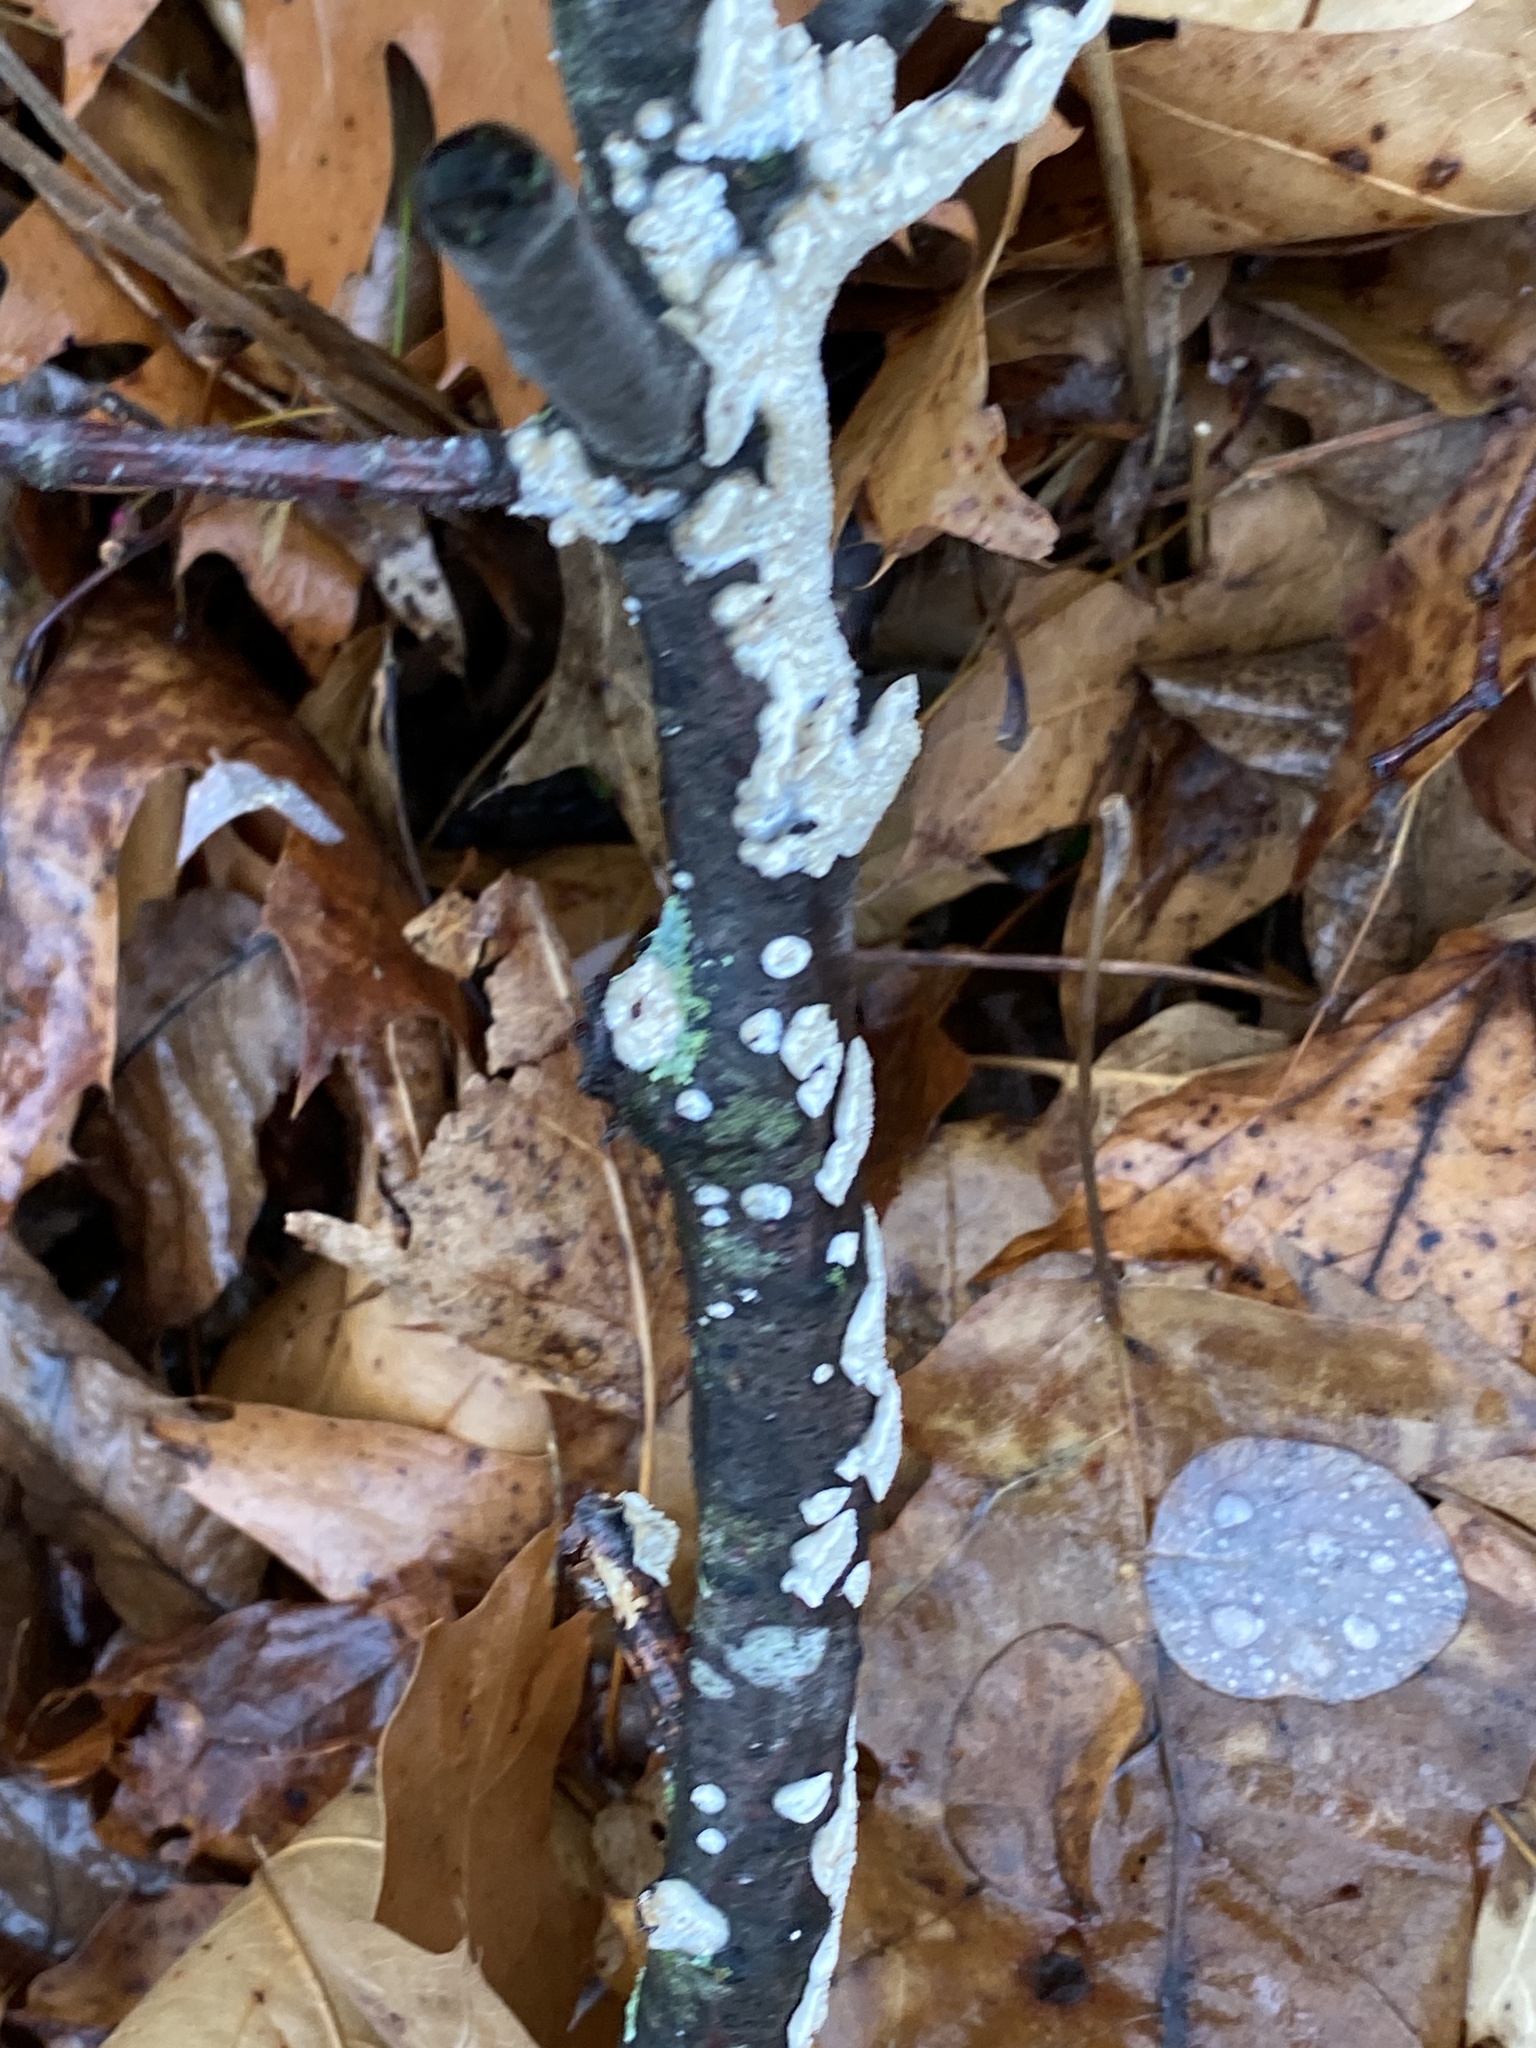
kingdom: Fungi
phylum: Basidiomycota
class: Agaricomycetes
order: Polyporales
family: Irpicaceae
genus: Irpex
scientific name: Irpex lacteus
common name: Milk-white toothed polypore
